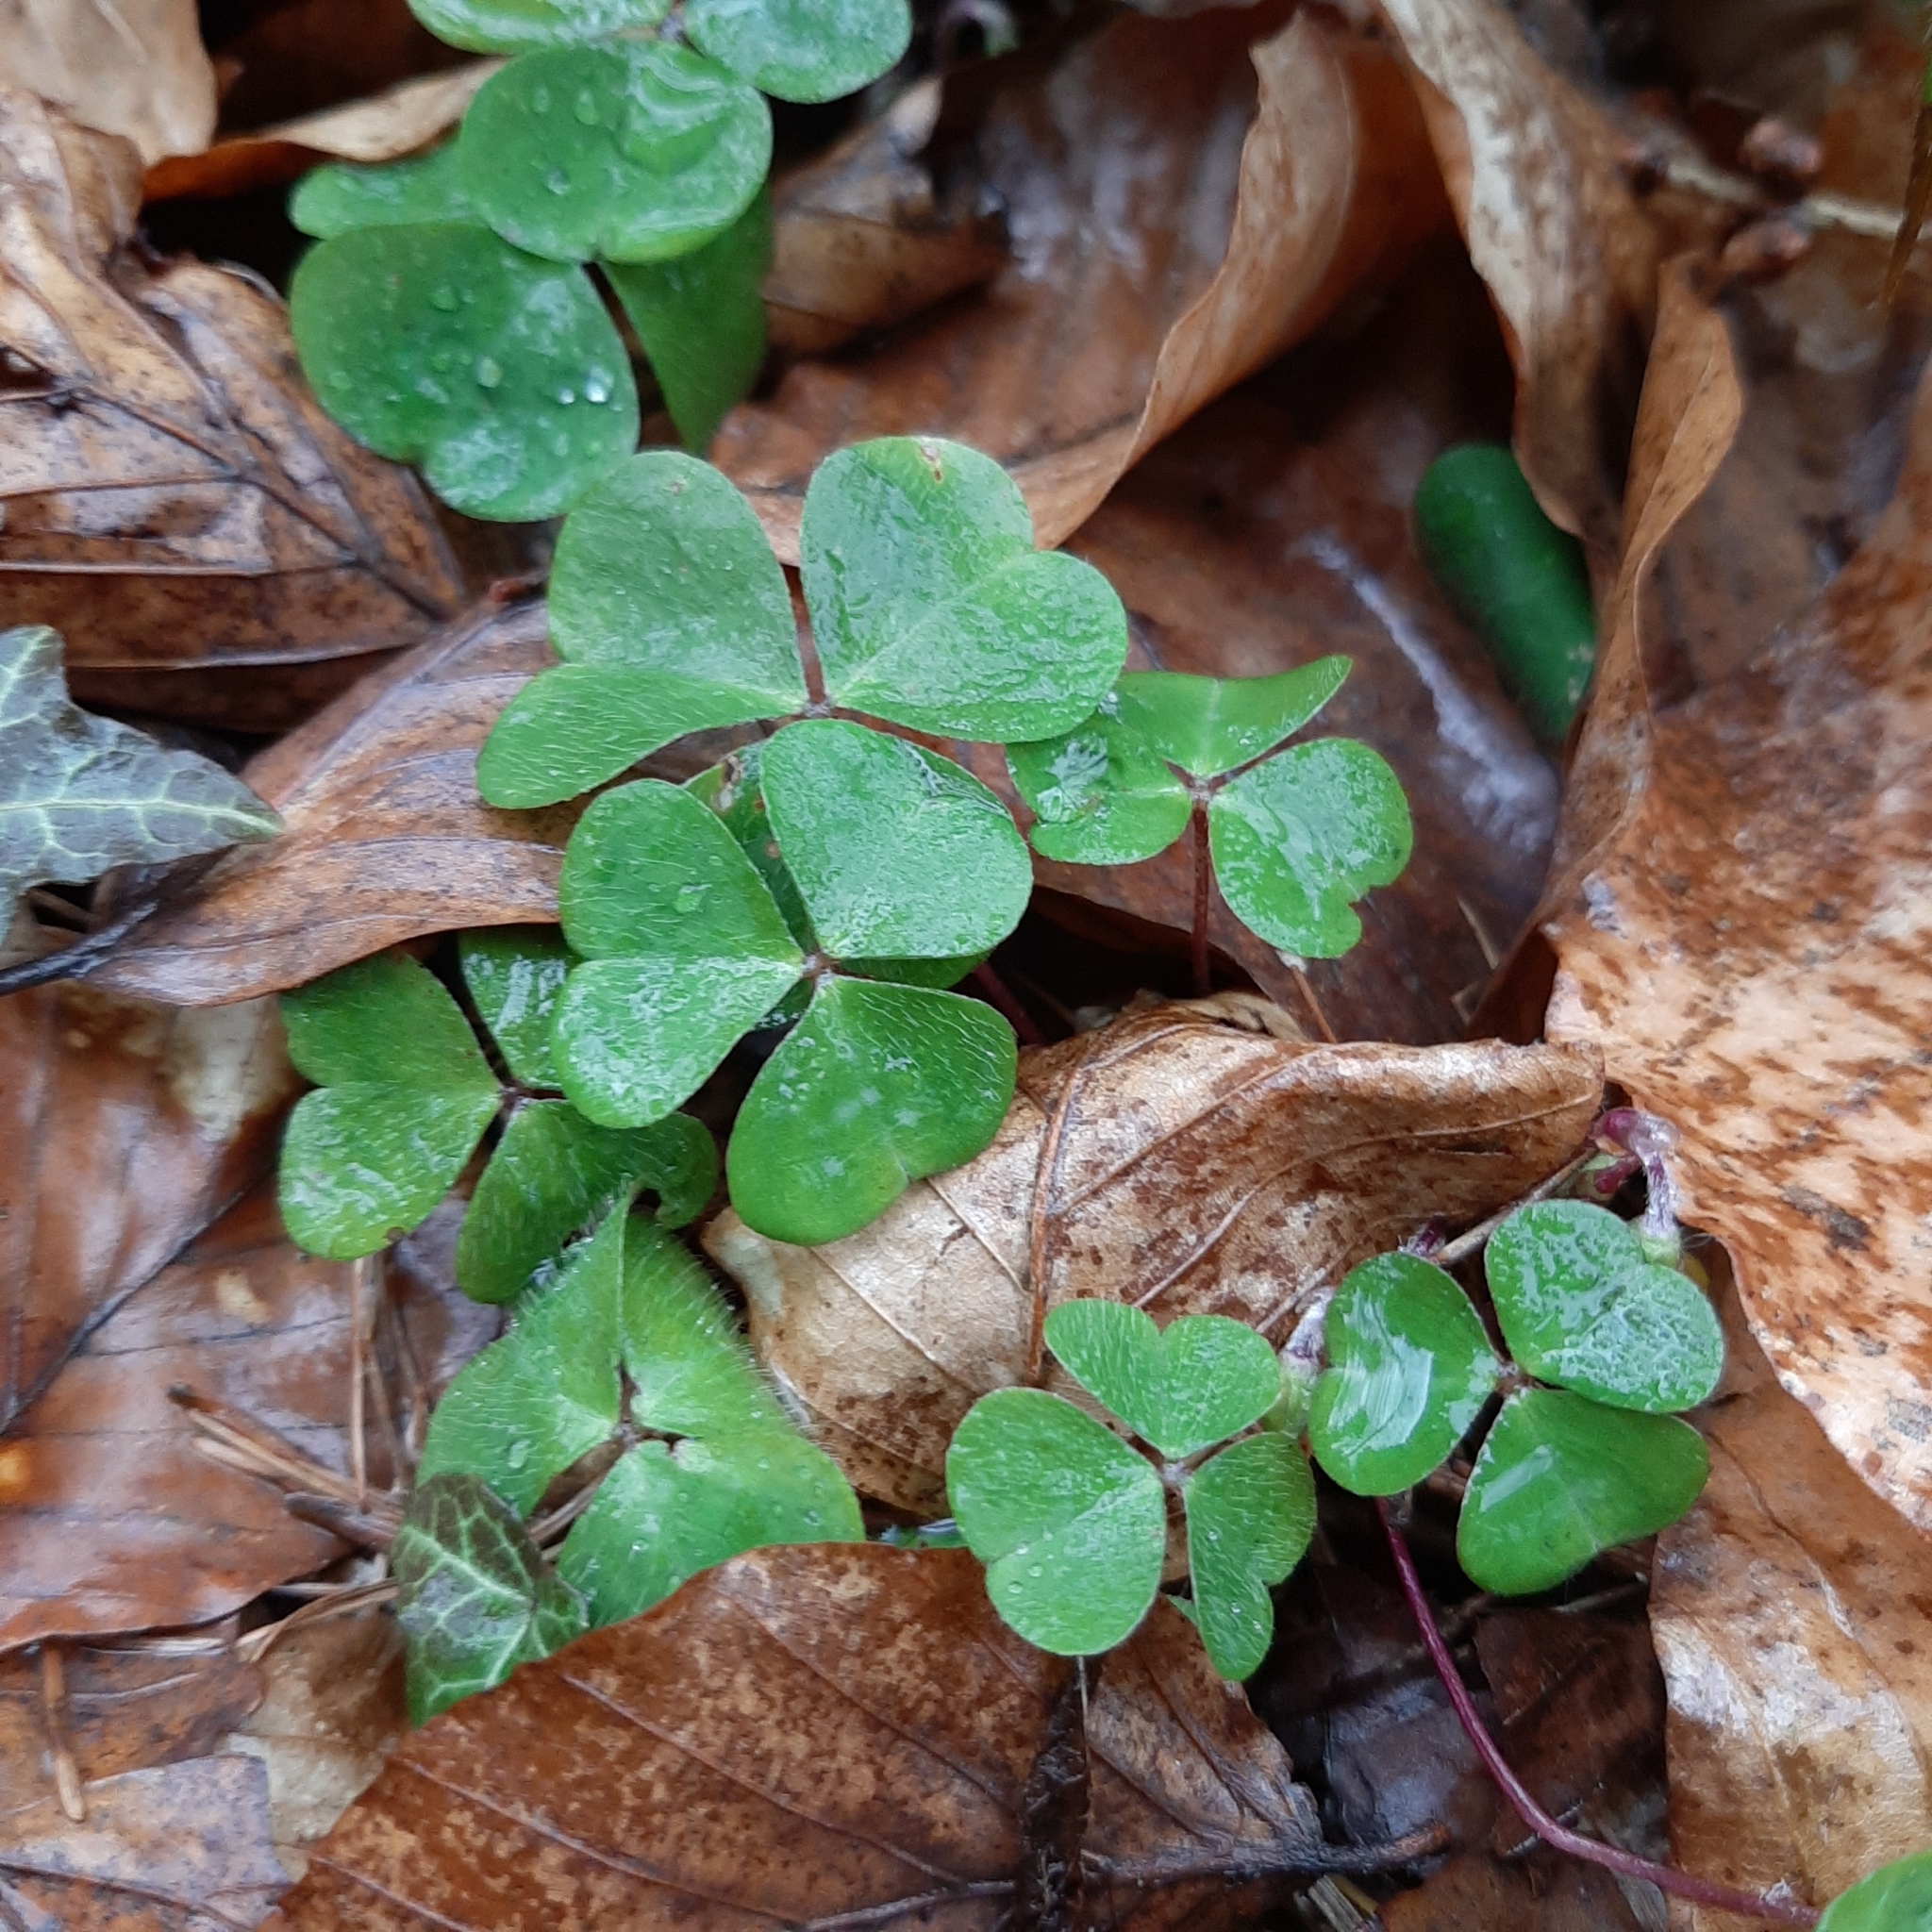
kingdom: Plantae
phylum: Tracheophyta
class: Magnoliopsida
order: Oxalidales
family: Oxalidaceae
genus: Oxalis
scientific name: Oxalis acetosella
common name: Wood-sorrel
